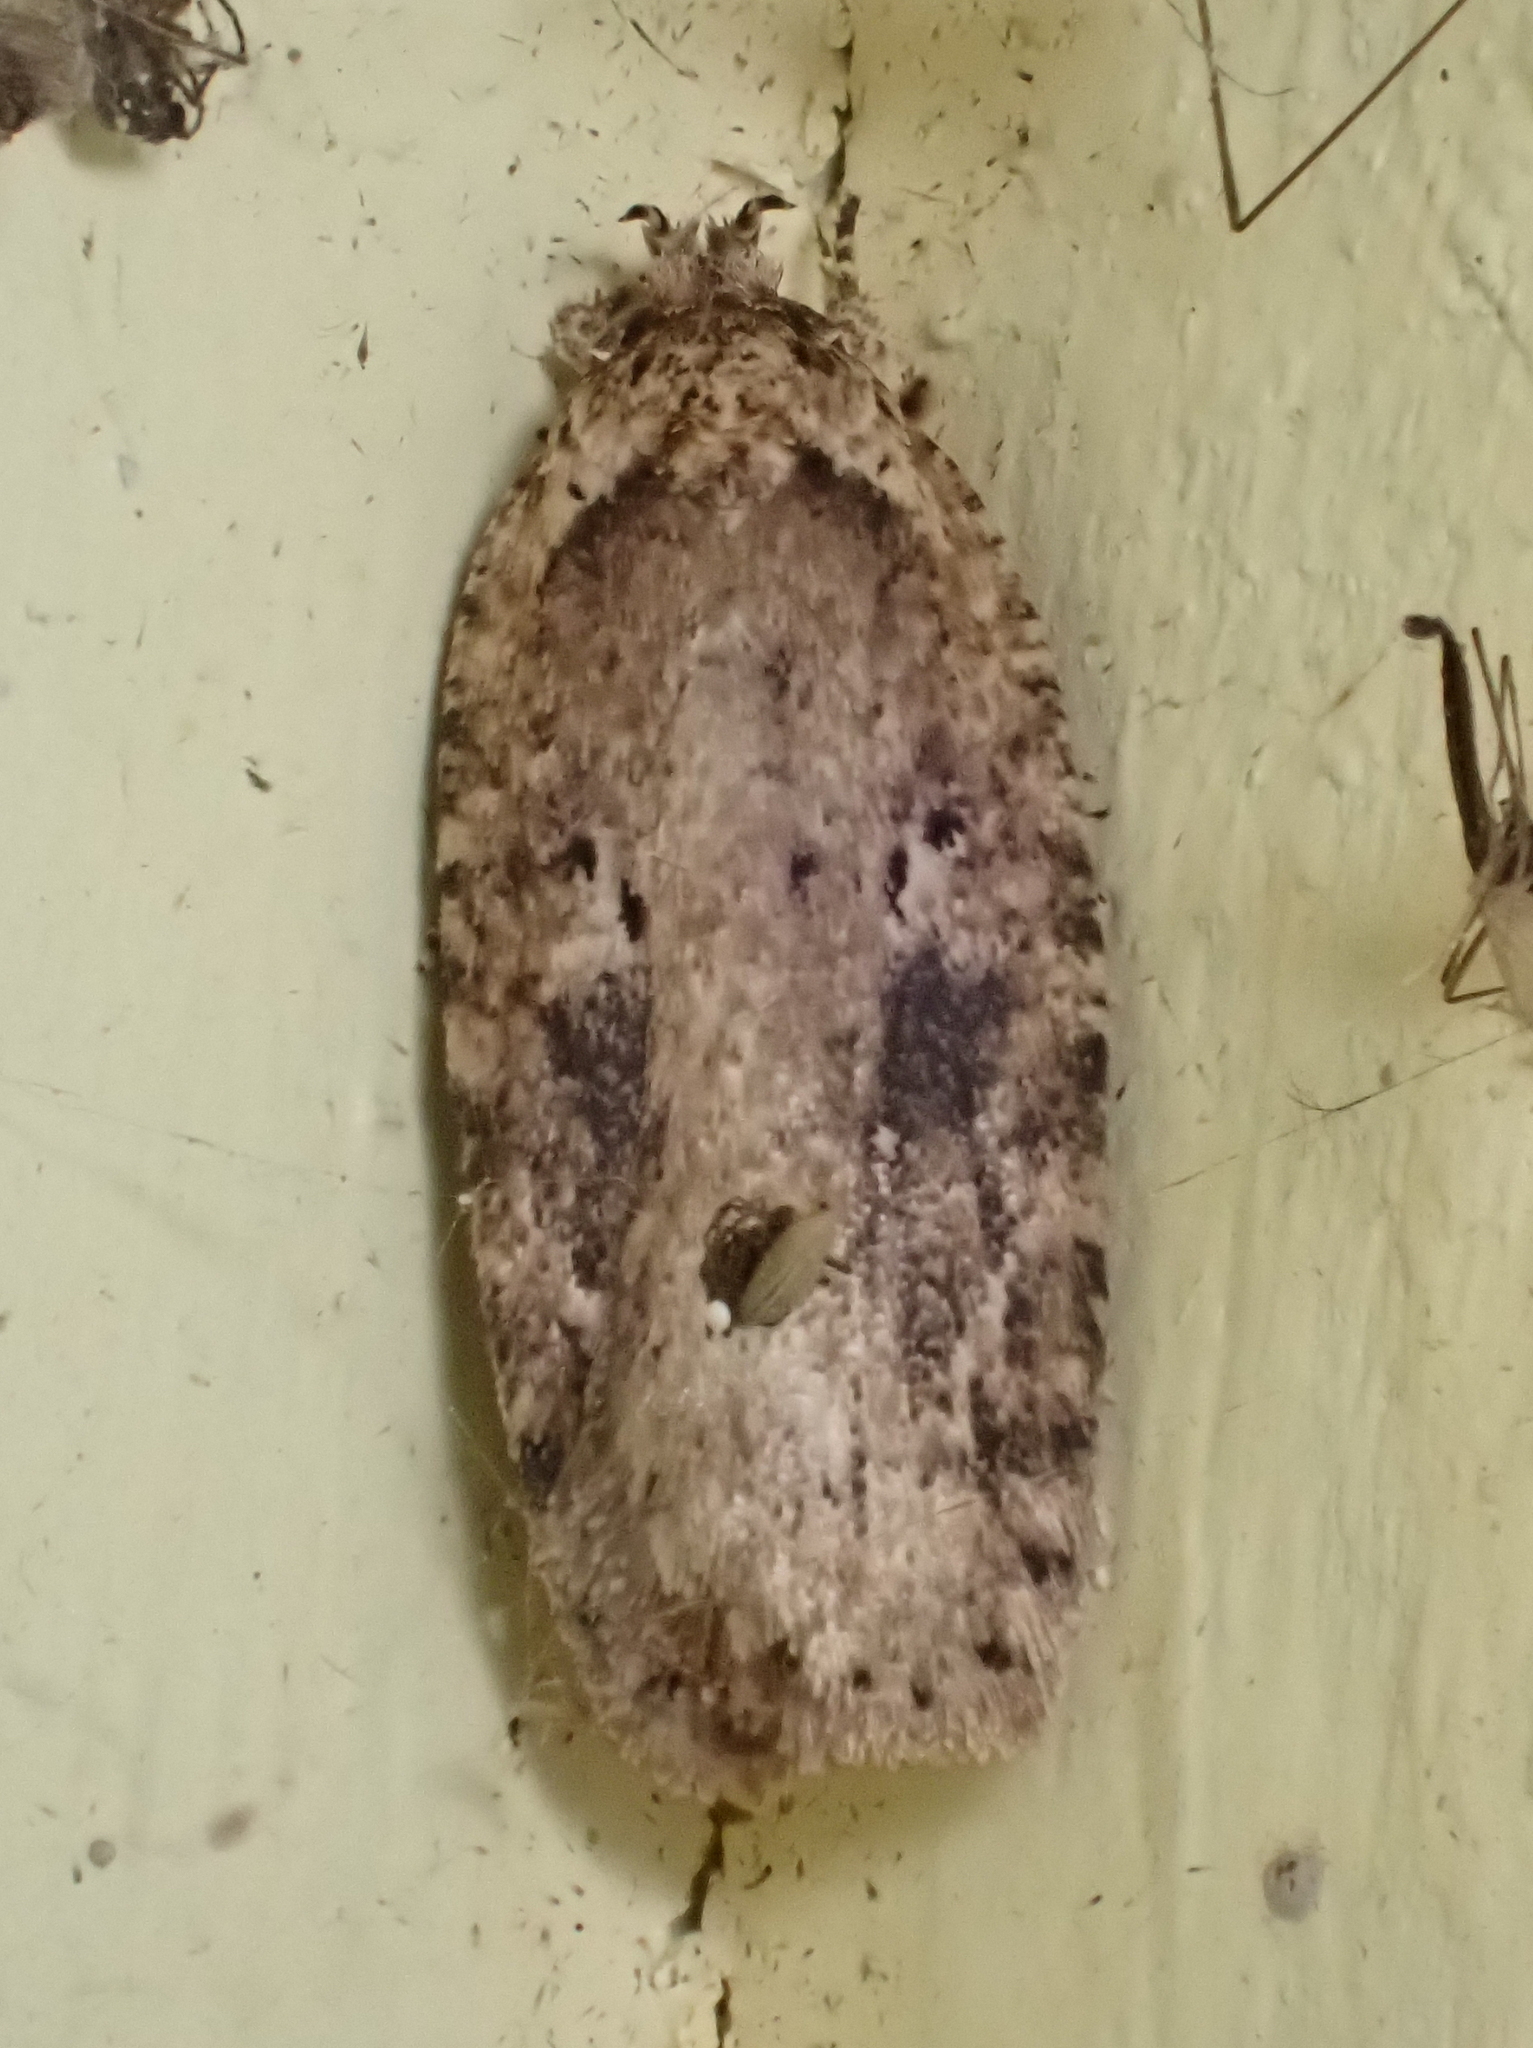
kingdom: Animalia
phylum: Arthropoda
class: Insecta
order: Lepidoptera
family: Depressariidae
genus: Agonopterix
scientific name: Agonopterix pulvipennella
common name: Goldenrod leafffolder
